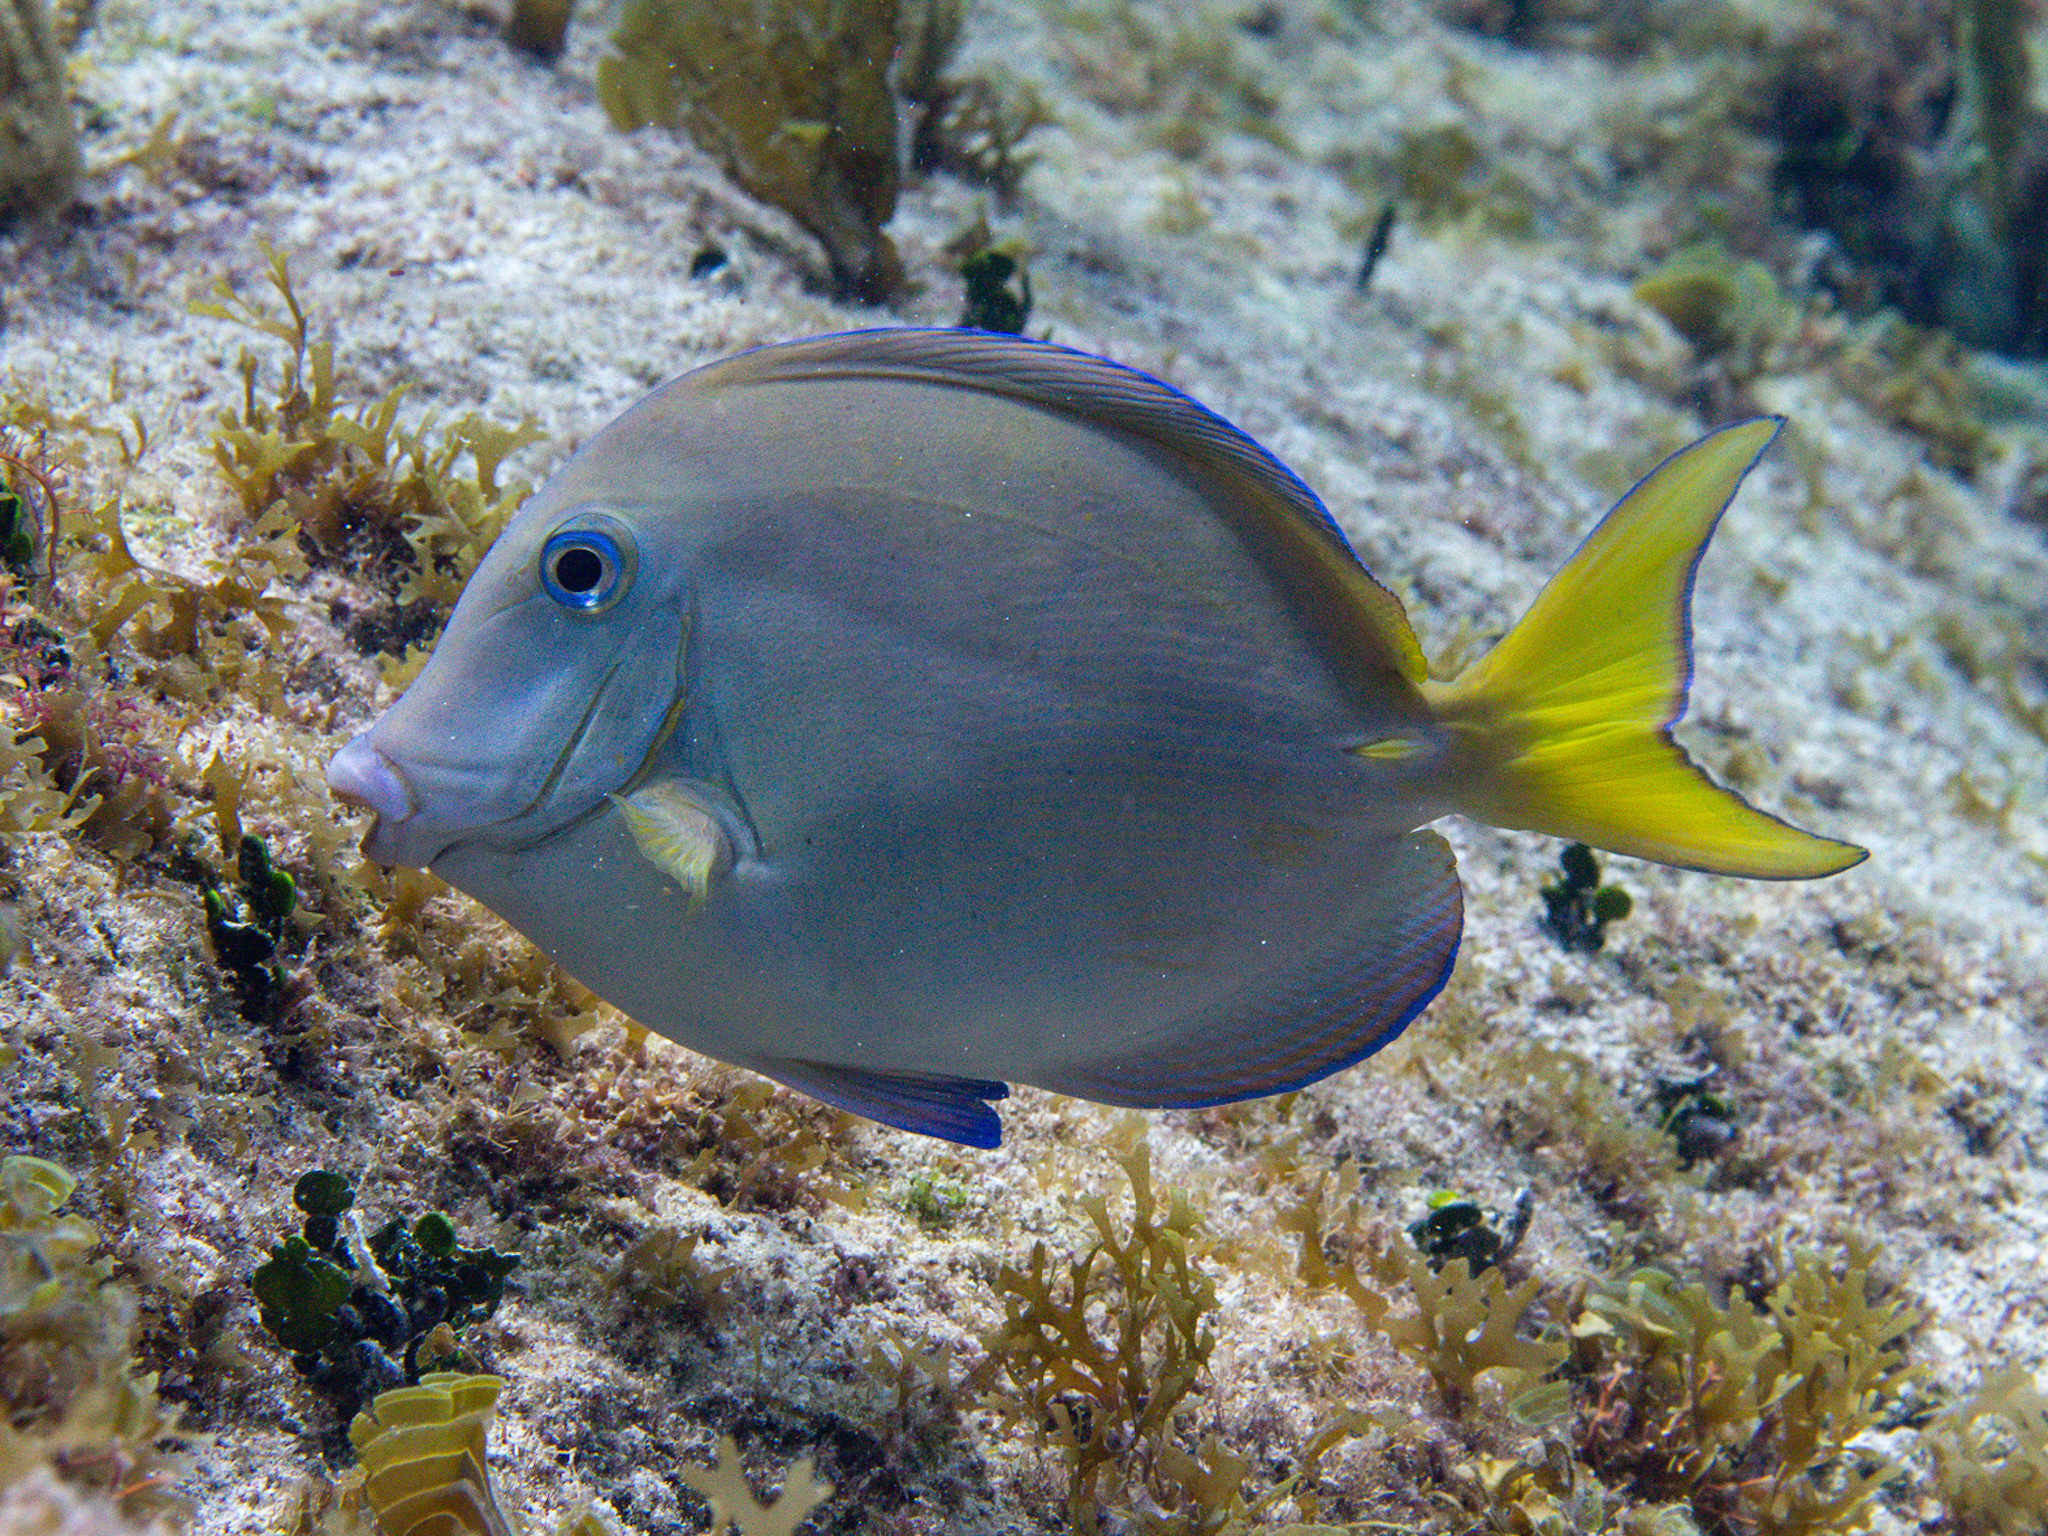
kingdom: Animalia
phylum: Chordata
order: Perciformes
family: Acanthuridae
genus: Acanthurus
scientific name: Acanthurus coeruleus
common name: Blue tang
